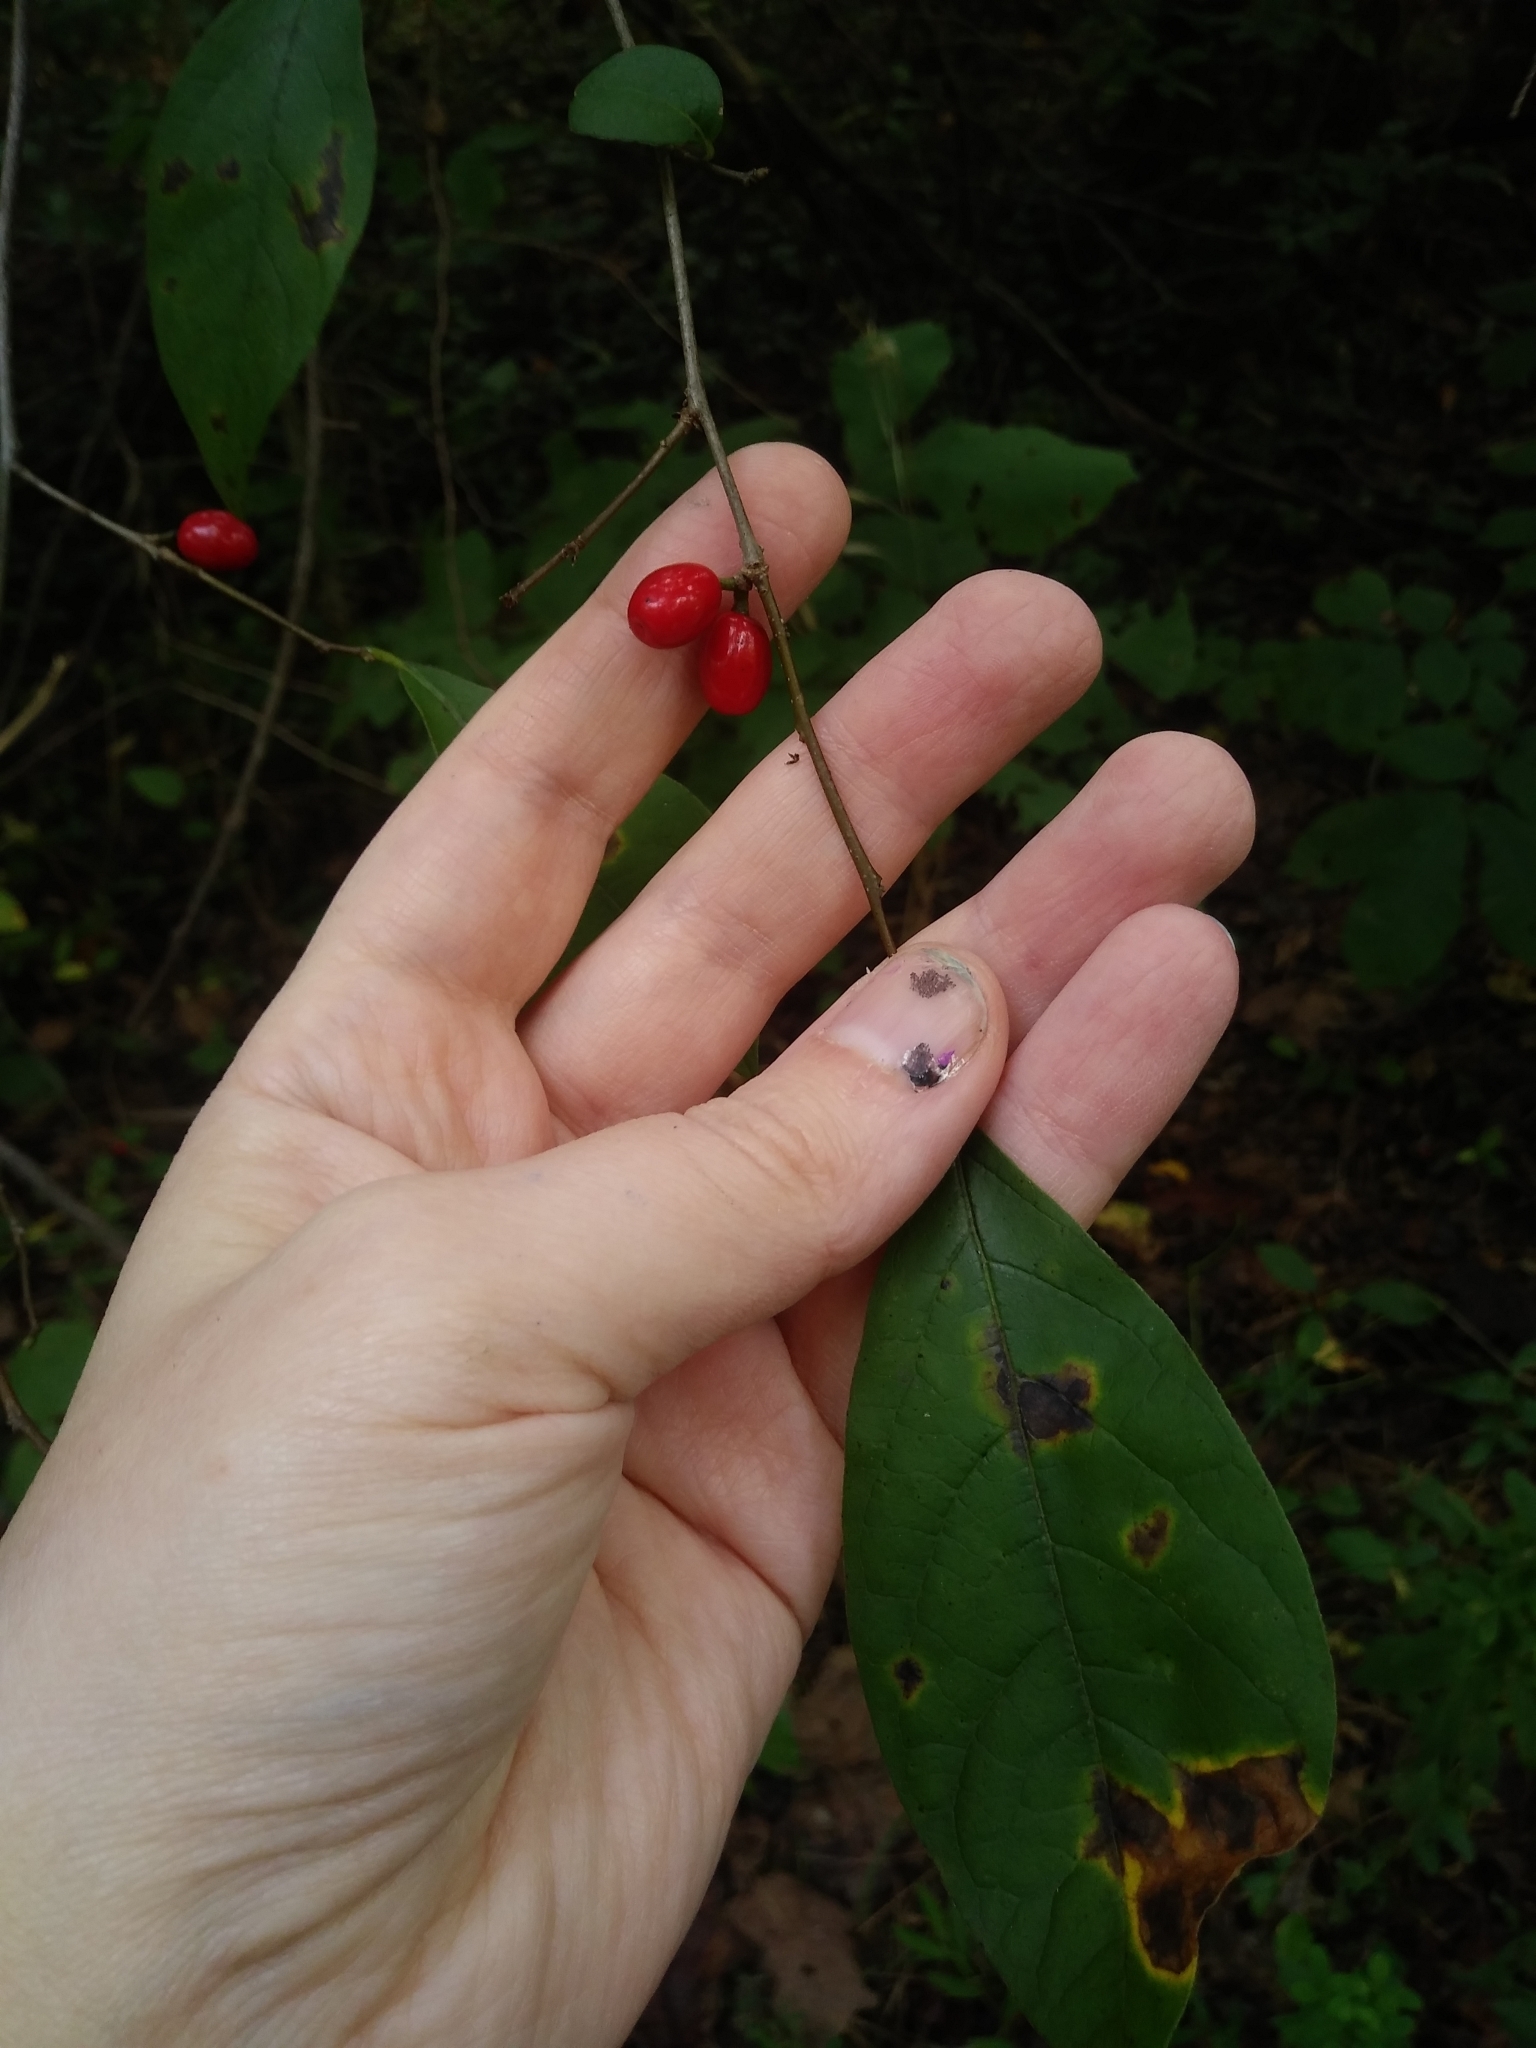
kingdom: Plantae
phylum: Tracheophyta
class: Magnoliopsida
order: Laurales
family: Lauraceae
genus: Lindera
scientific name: Lindera benzoin
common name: Spicebush
